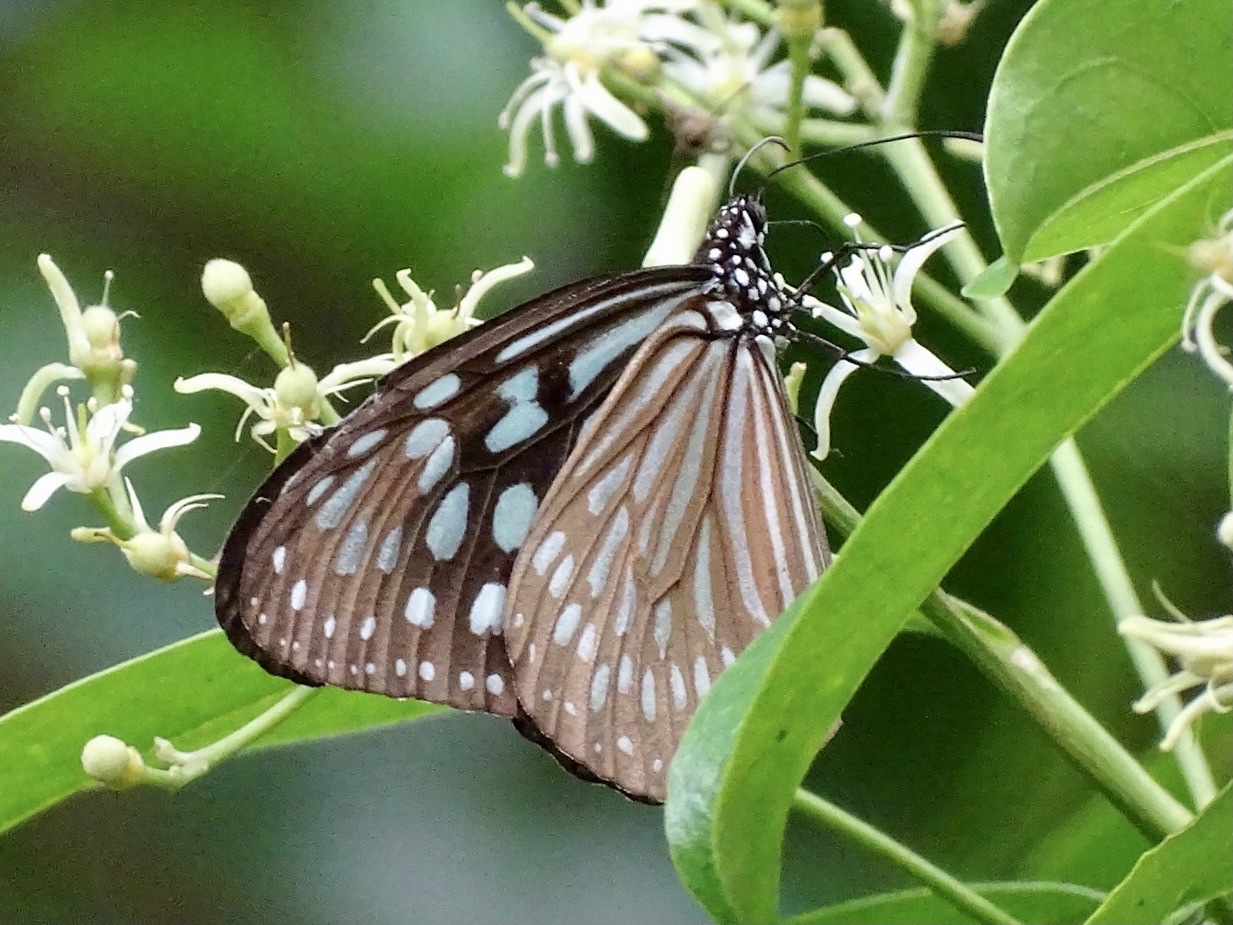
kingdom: Animalia
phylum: Arthropoda
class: Insecta
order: Lepidoptera
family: Nymphalidae
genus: Ideopsis
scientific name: Ideopsis similis
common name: Ceylon blue glassy tiger
